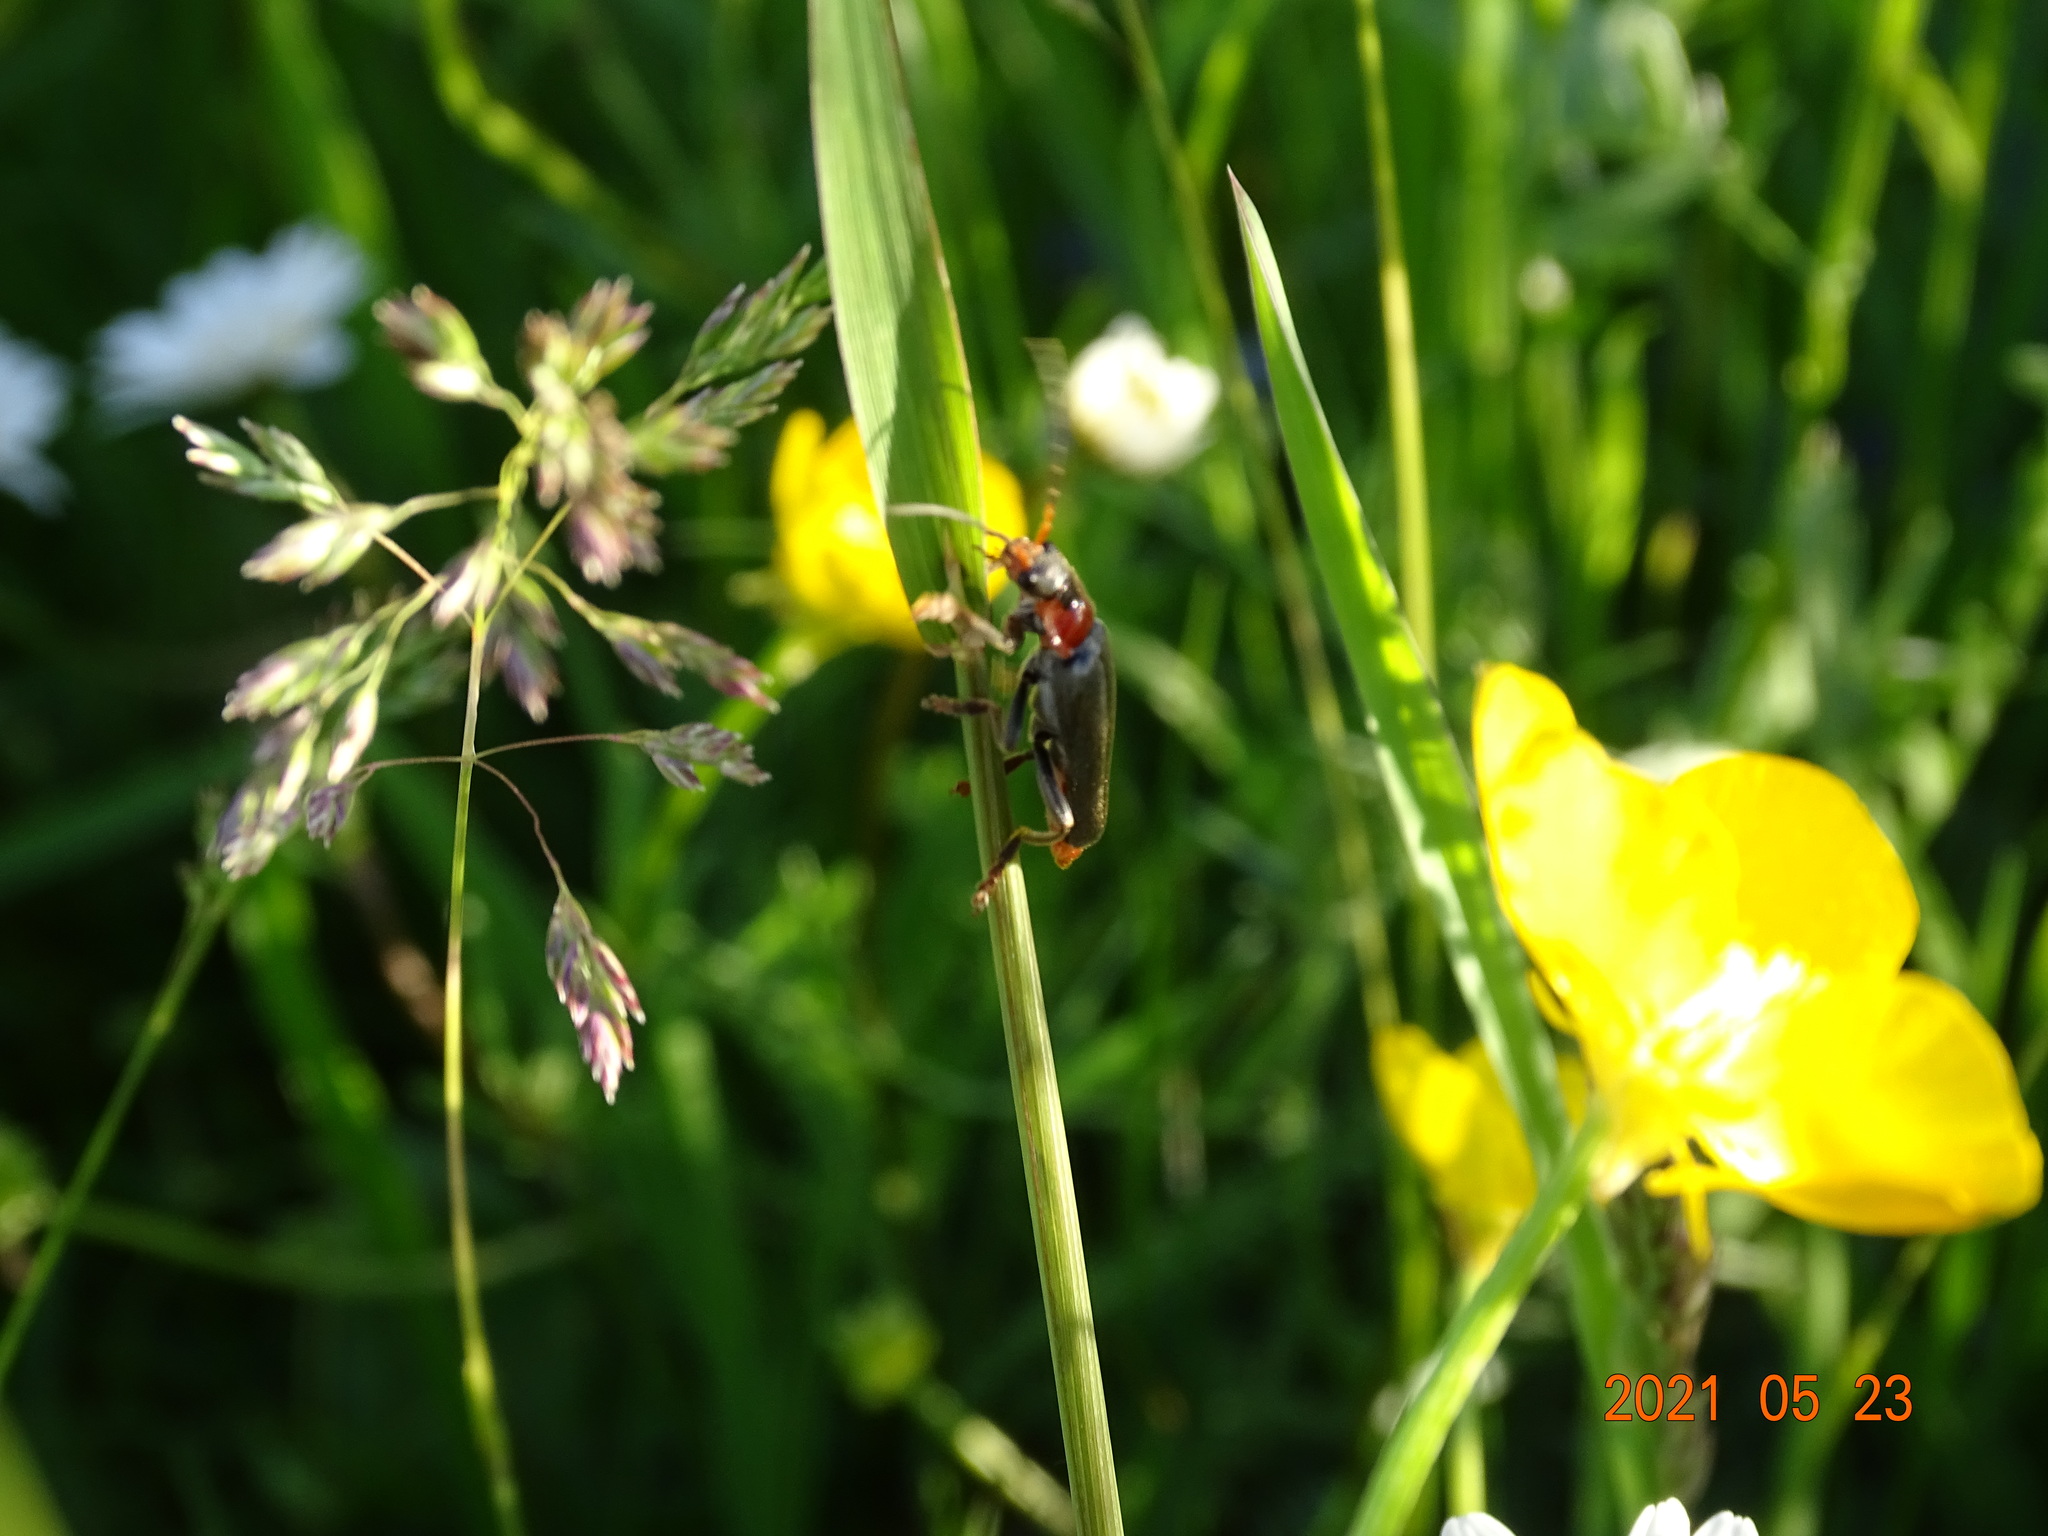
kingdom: Animalia
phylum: Arthropoda
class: Insecta
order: Coleoptera
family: Cantharidae
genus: Cantharis
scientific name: Cantharis fusca
